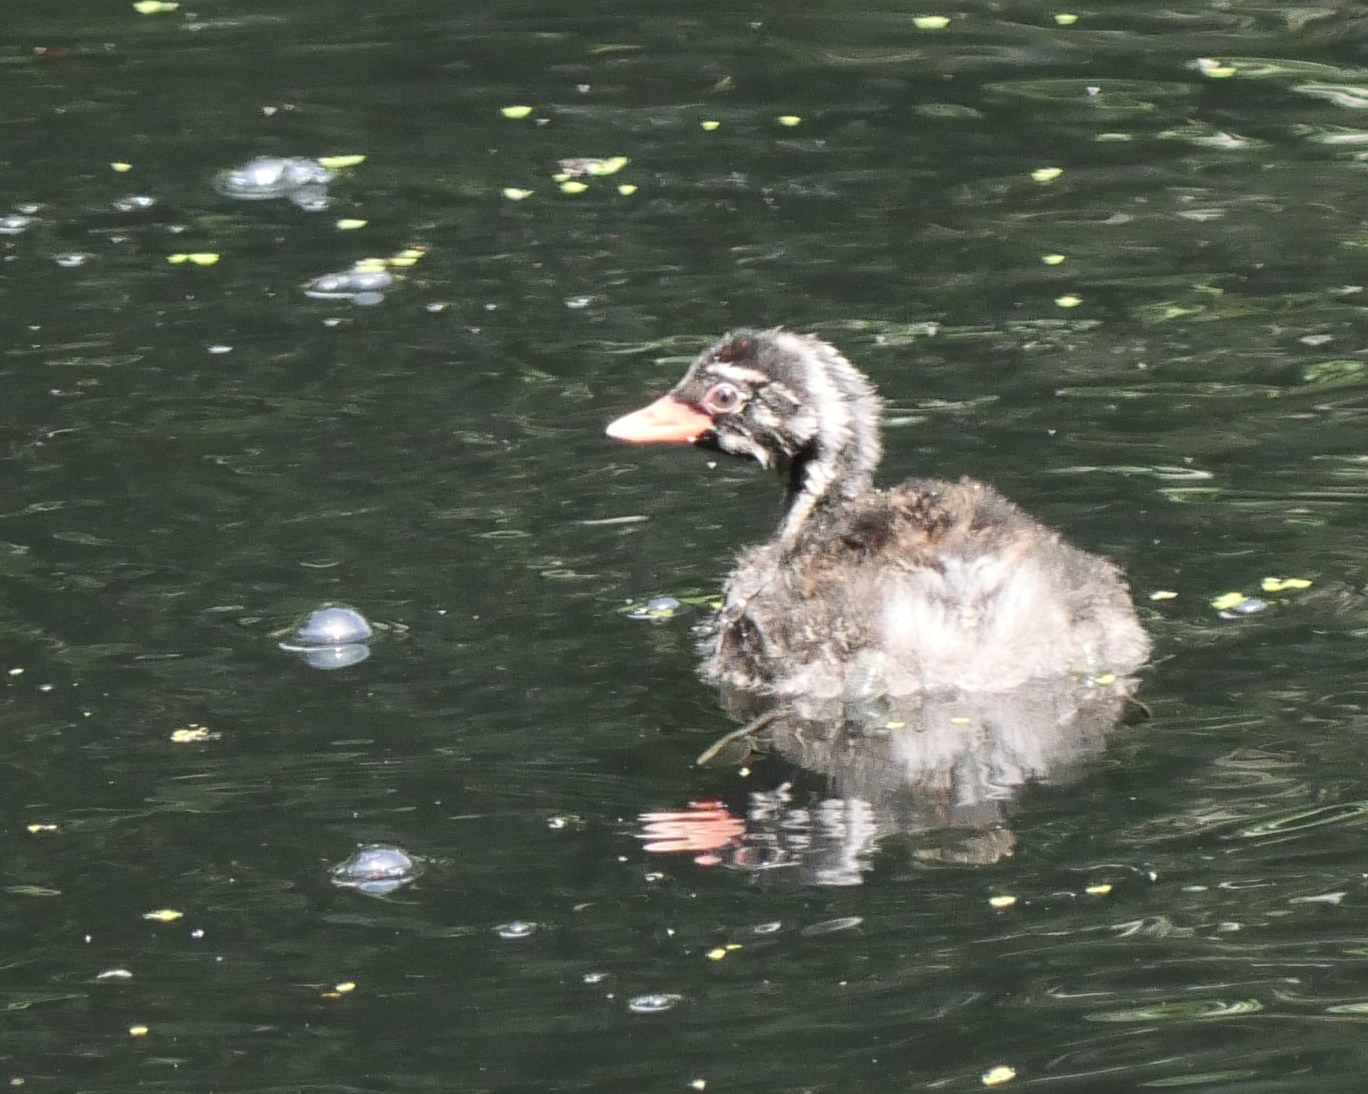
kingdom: Animalia
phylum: Chordata
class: Aves
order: Podicipediformes
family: Podicipedidae
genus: Tachybaptus
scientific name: Tachybaptus ruficollis
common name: Little grebe
